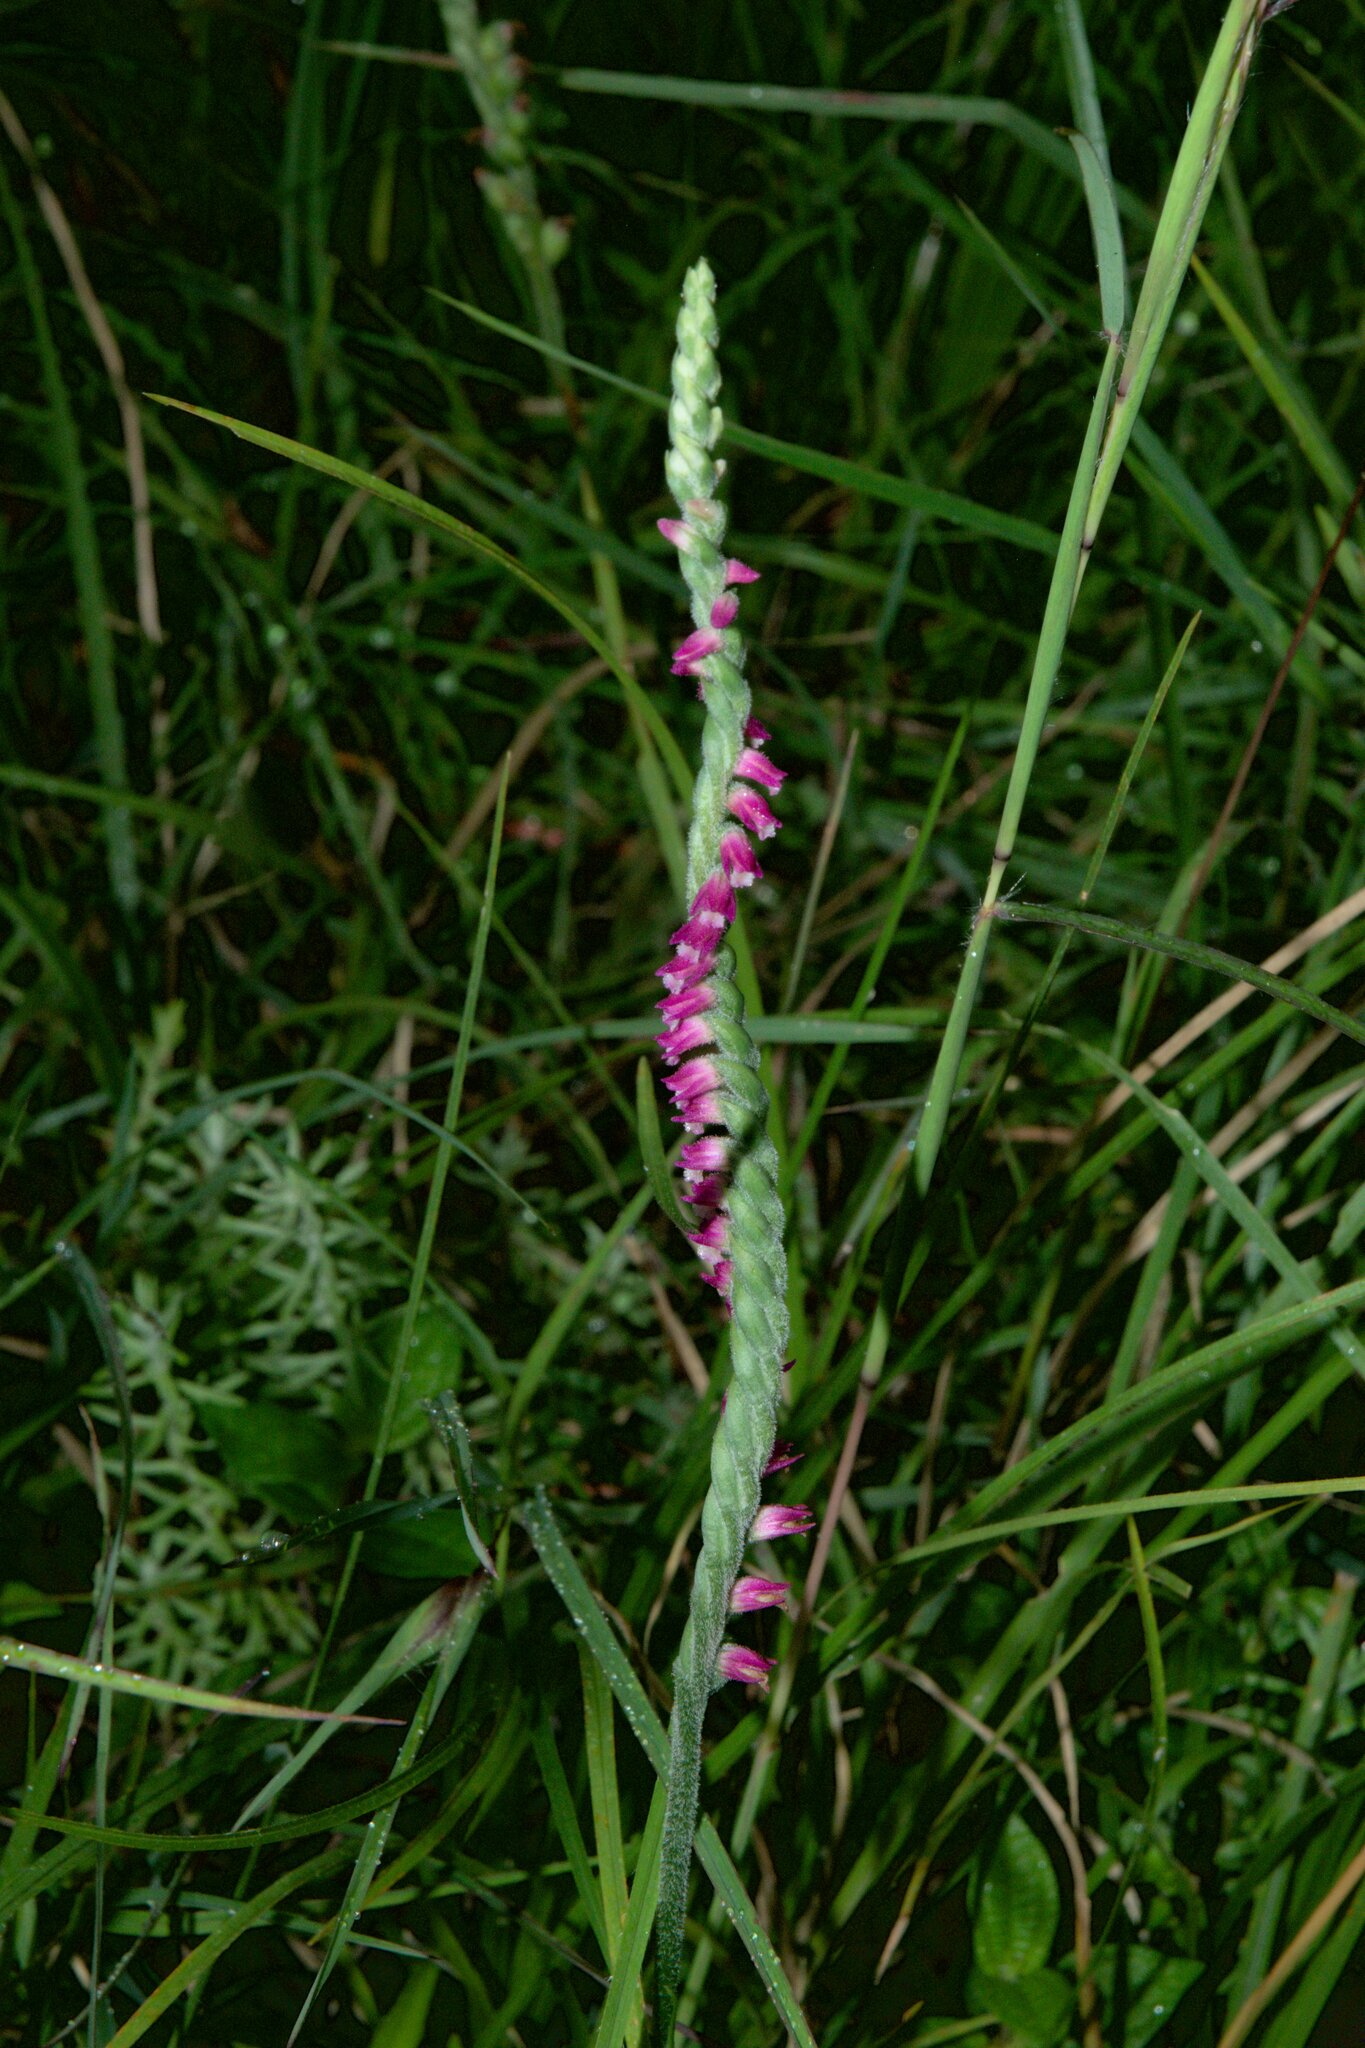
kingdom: Plantae
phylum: Tracheophyta
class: Liliopsida
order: Asparagales
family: Orchidaceae
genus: Spiranthes
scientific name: Spiranthes australis
